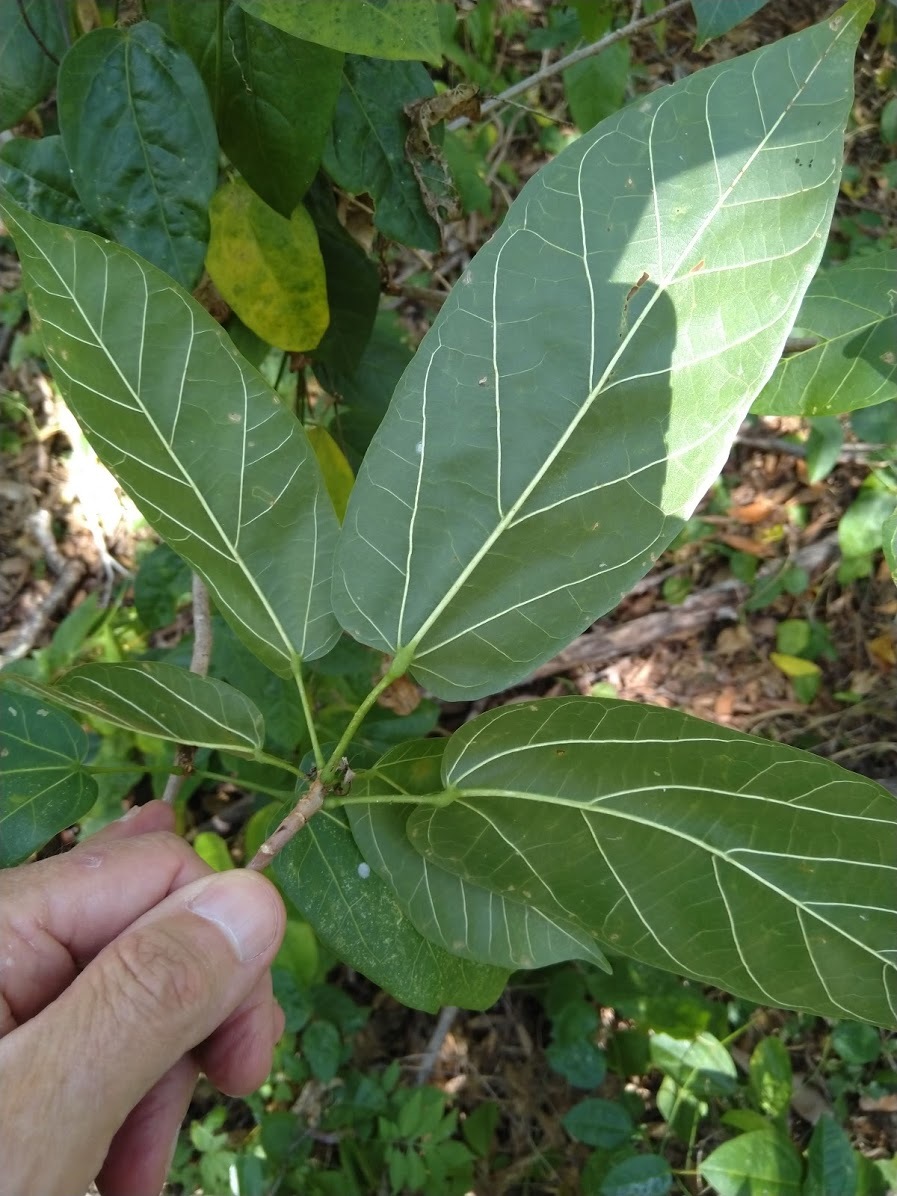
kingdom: Plantae
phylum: Tracheophyta
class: Magnoliopsida
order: Malvales
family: Malvaceae
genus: Sterculia
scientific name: Sterculia quadrifida
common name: Orange-fruit kurrajong
